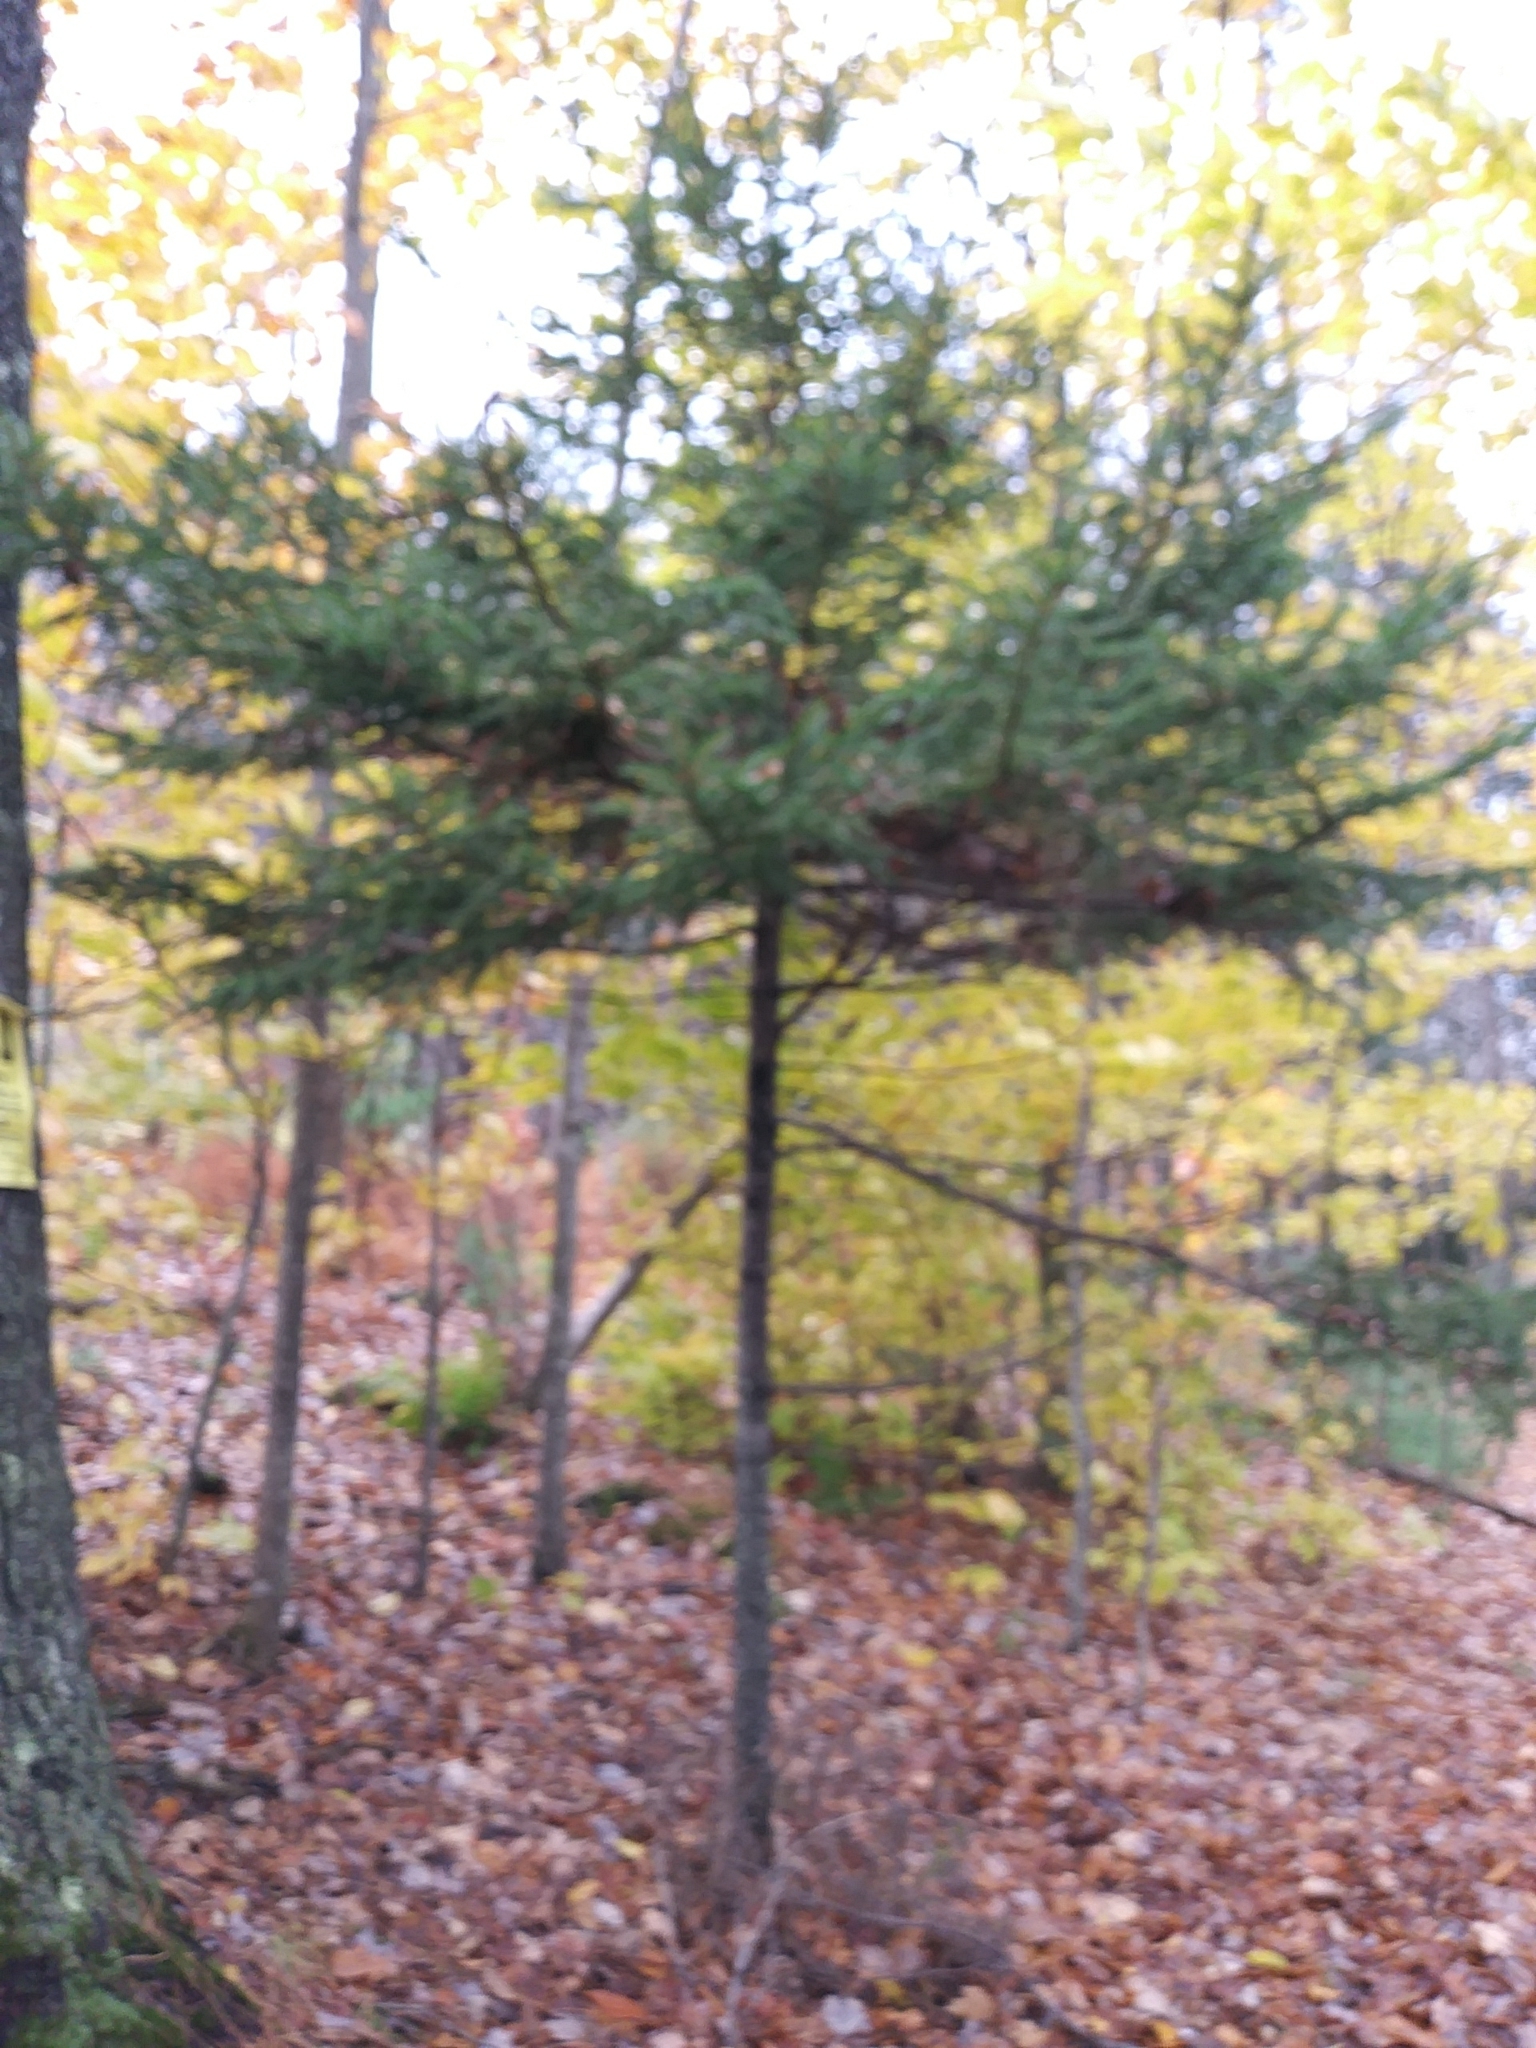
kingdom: Plantae
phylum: Tracheophyta
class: Pinopsida
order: Pinales
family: Pinaceae
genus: Picea
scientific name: Picea rubens
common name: Red spruce
